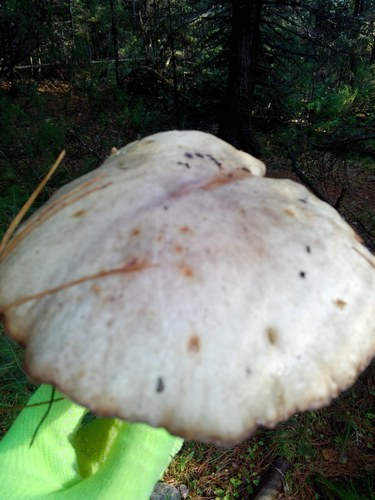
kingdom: Fungi
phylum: Basidiomycota
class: Agaricomycetes
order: Boletales
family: Suillaceae
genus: Suillus
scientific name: Suillus placidus
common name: Slippery white bolete
